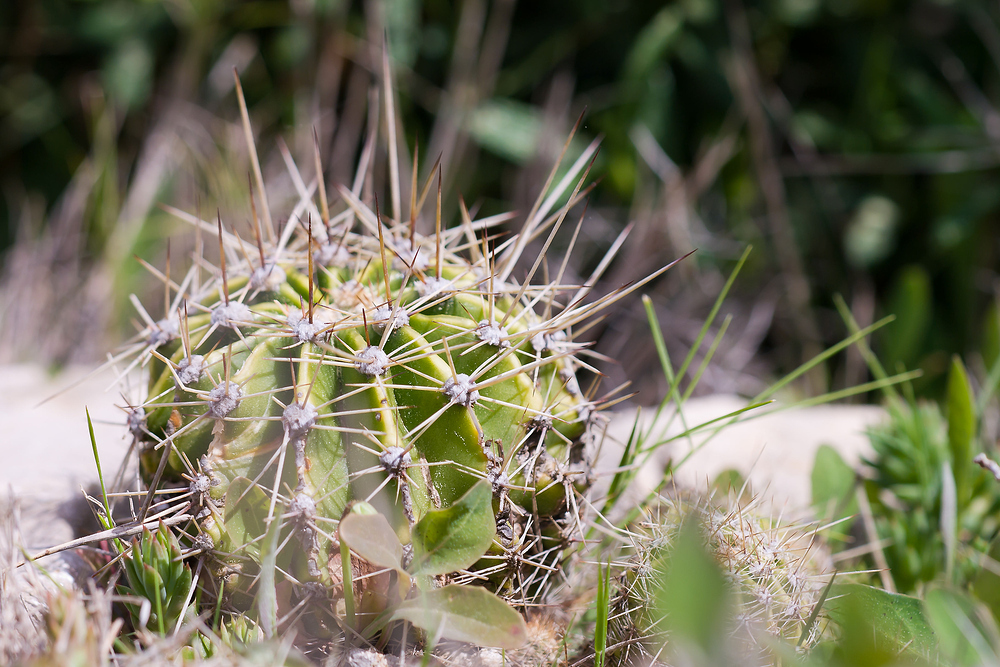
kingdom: Plantae
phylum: Tracheophyta
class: Magnoliopsida
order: Caryophyllales
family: Cactaceae
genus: Echinopsis
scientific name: Echinopsis oxygona
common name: Red easter-lily cactus
